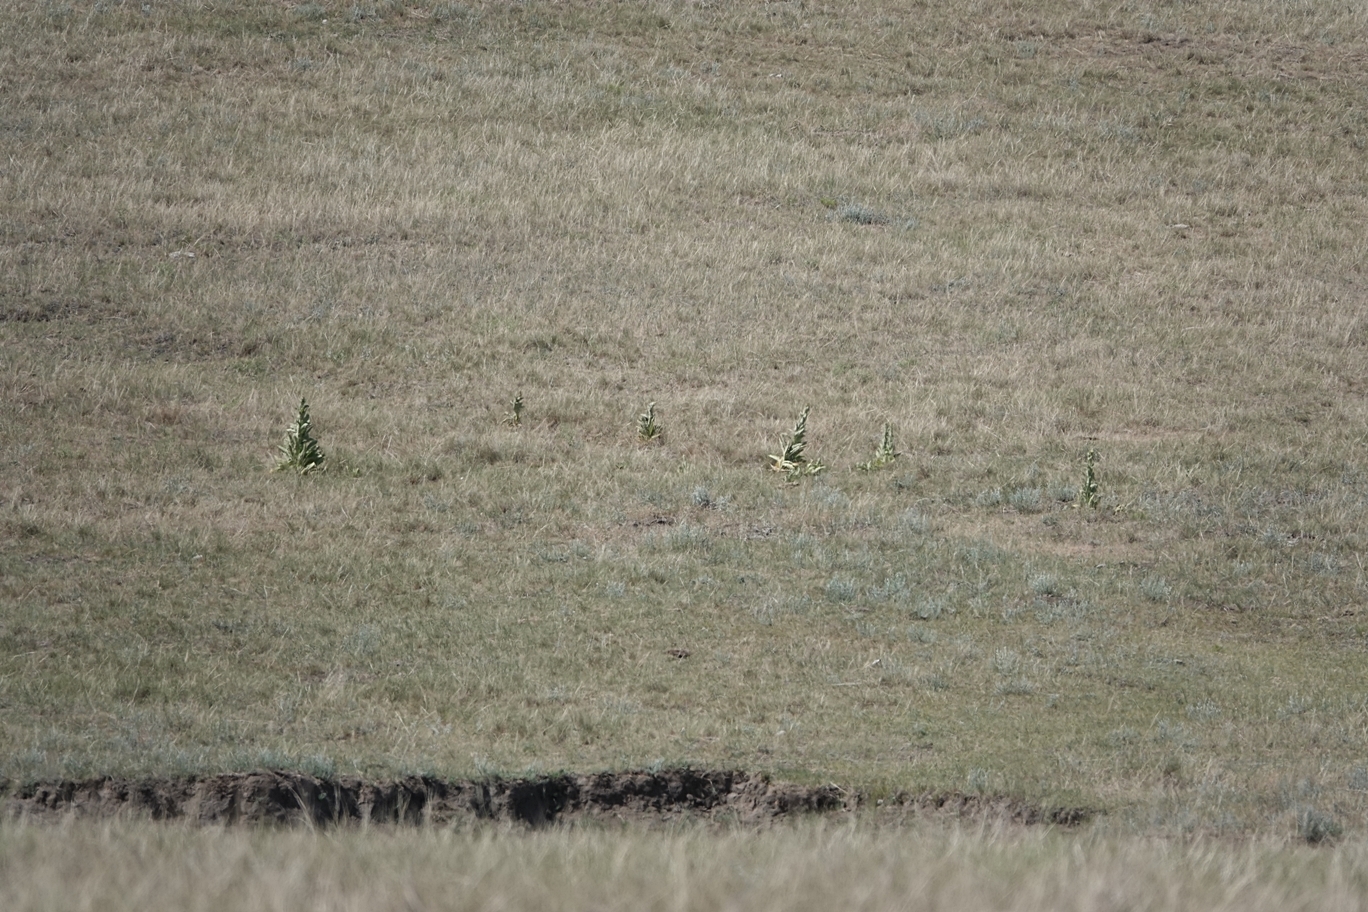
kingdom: Plantae
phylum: Tracheophyta
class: Magnoliopsida
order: Lamiales
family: Scrophulariaceae
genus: Verbascum
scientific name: Verbascum thapsus
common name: Common mullein
